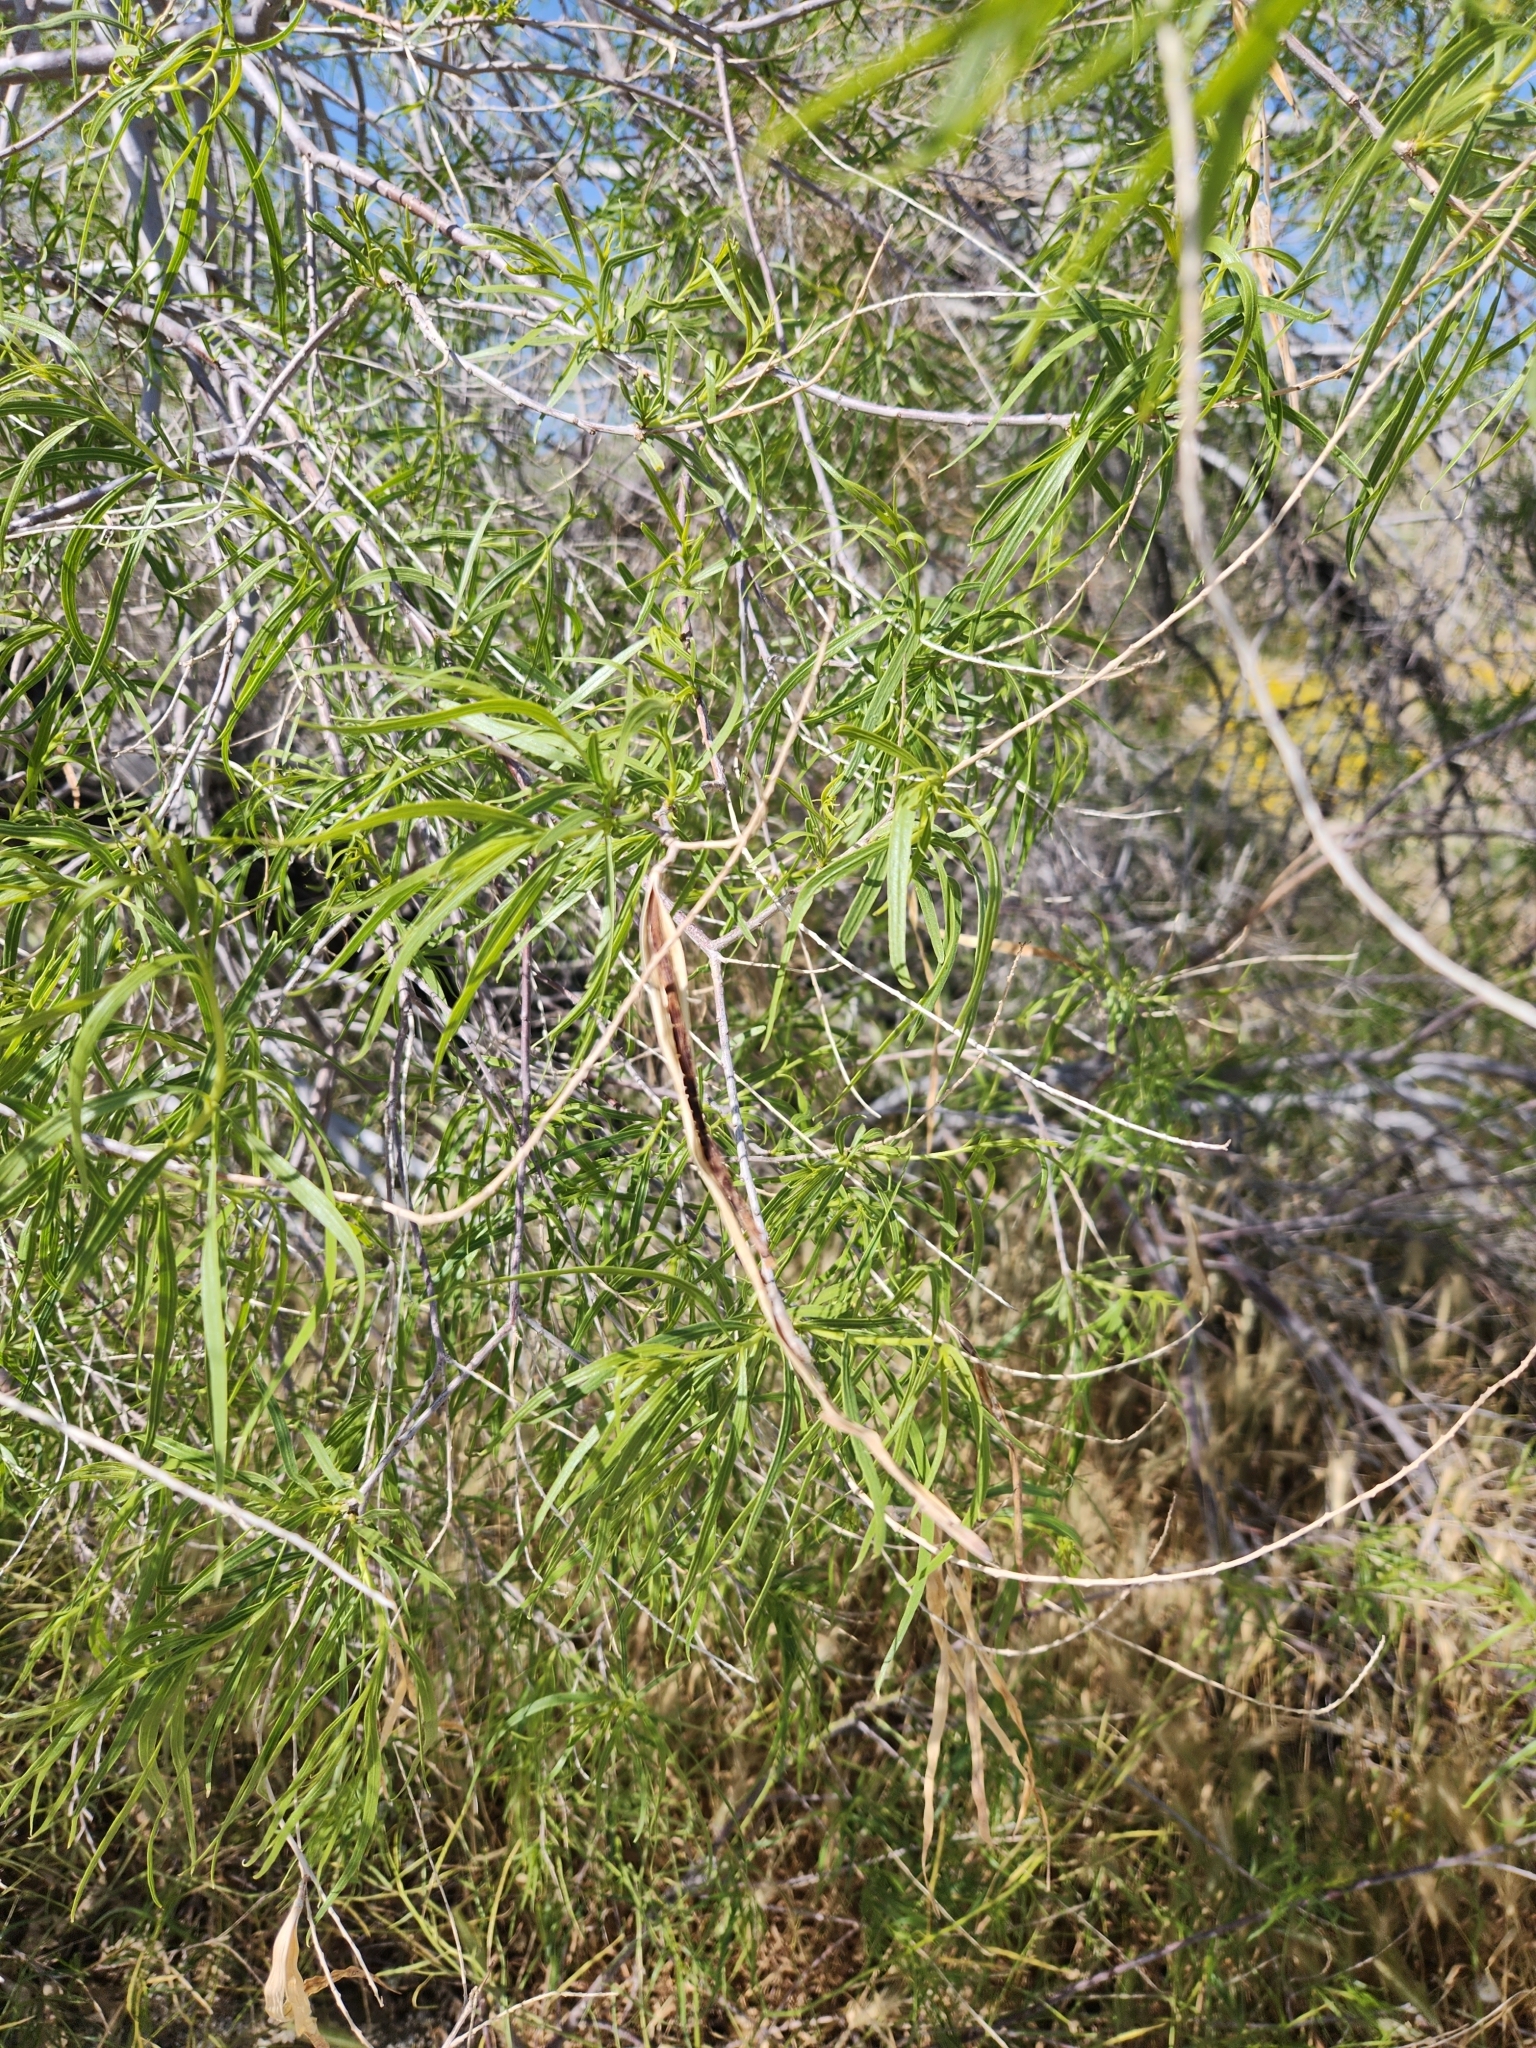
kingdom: Plantae
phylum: Tracheophyta
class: Magnoliopsida
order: Lamiales
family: Bignoniaceae
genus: Chilopsis
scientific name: Chilopsis linearis
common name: Desert-willow
